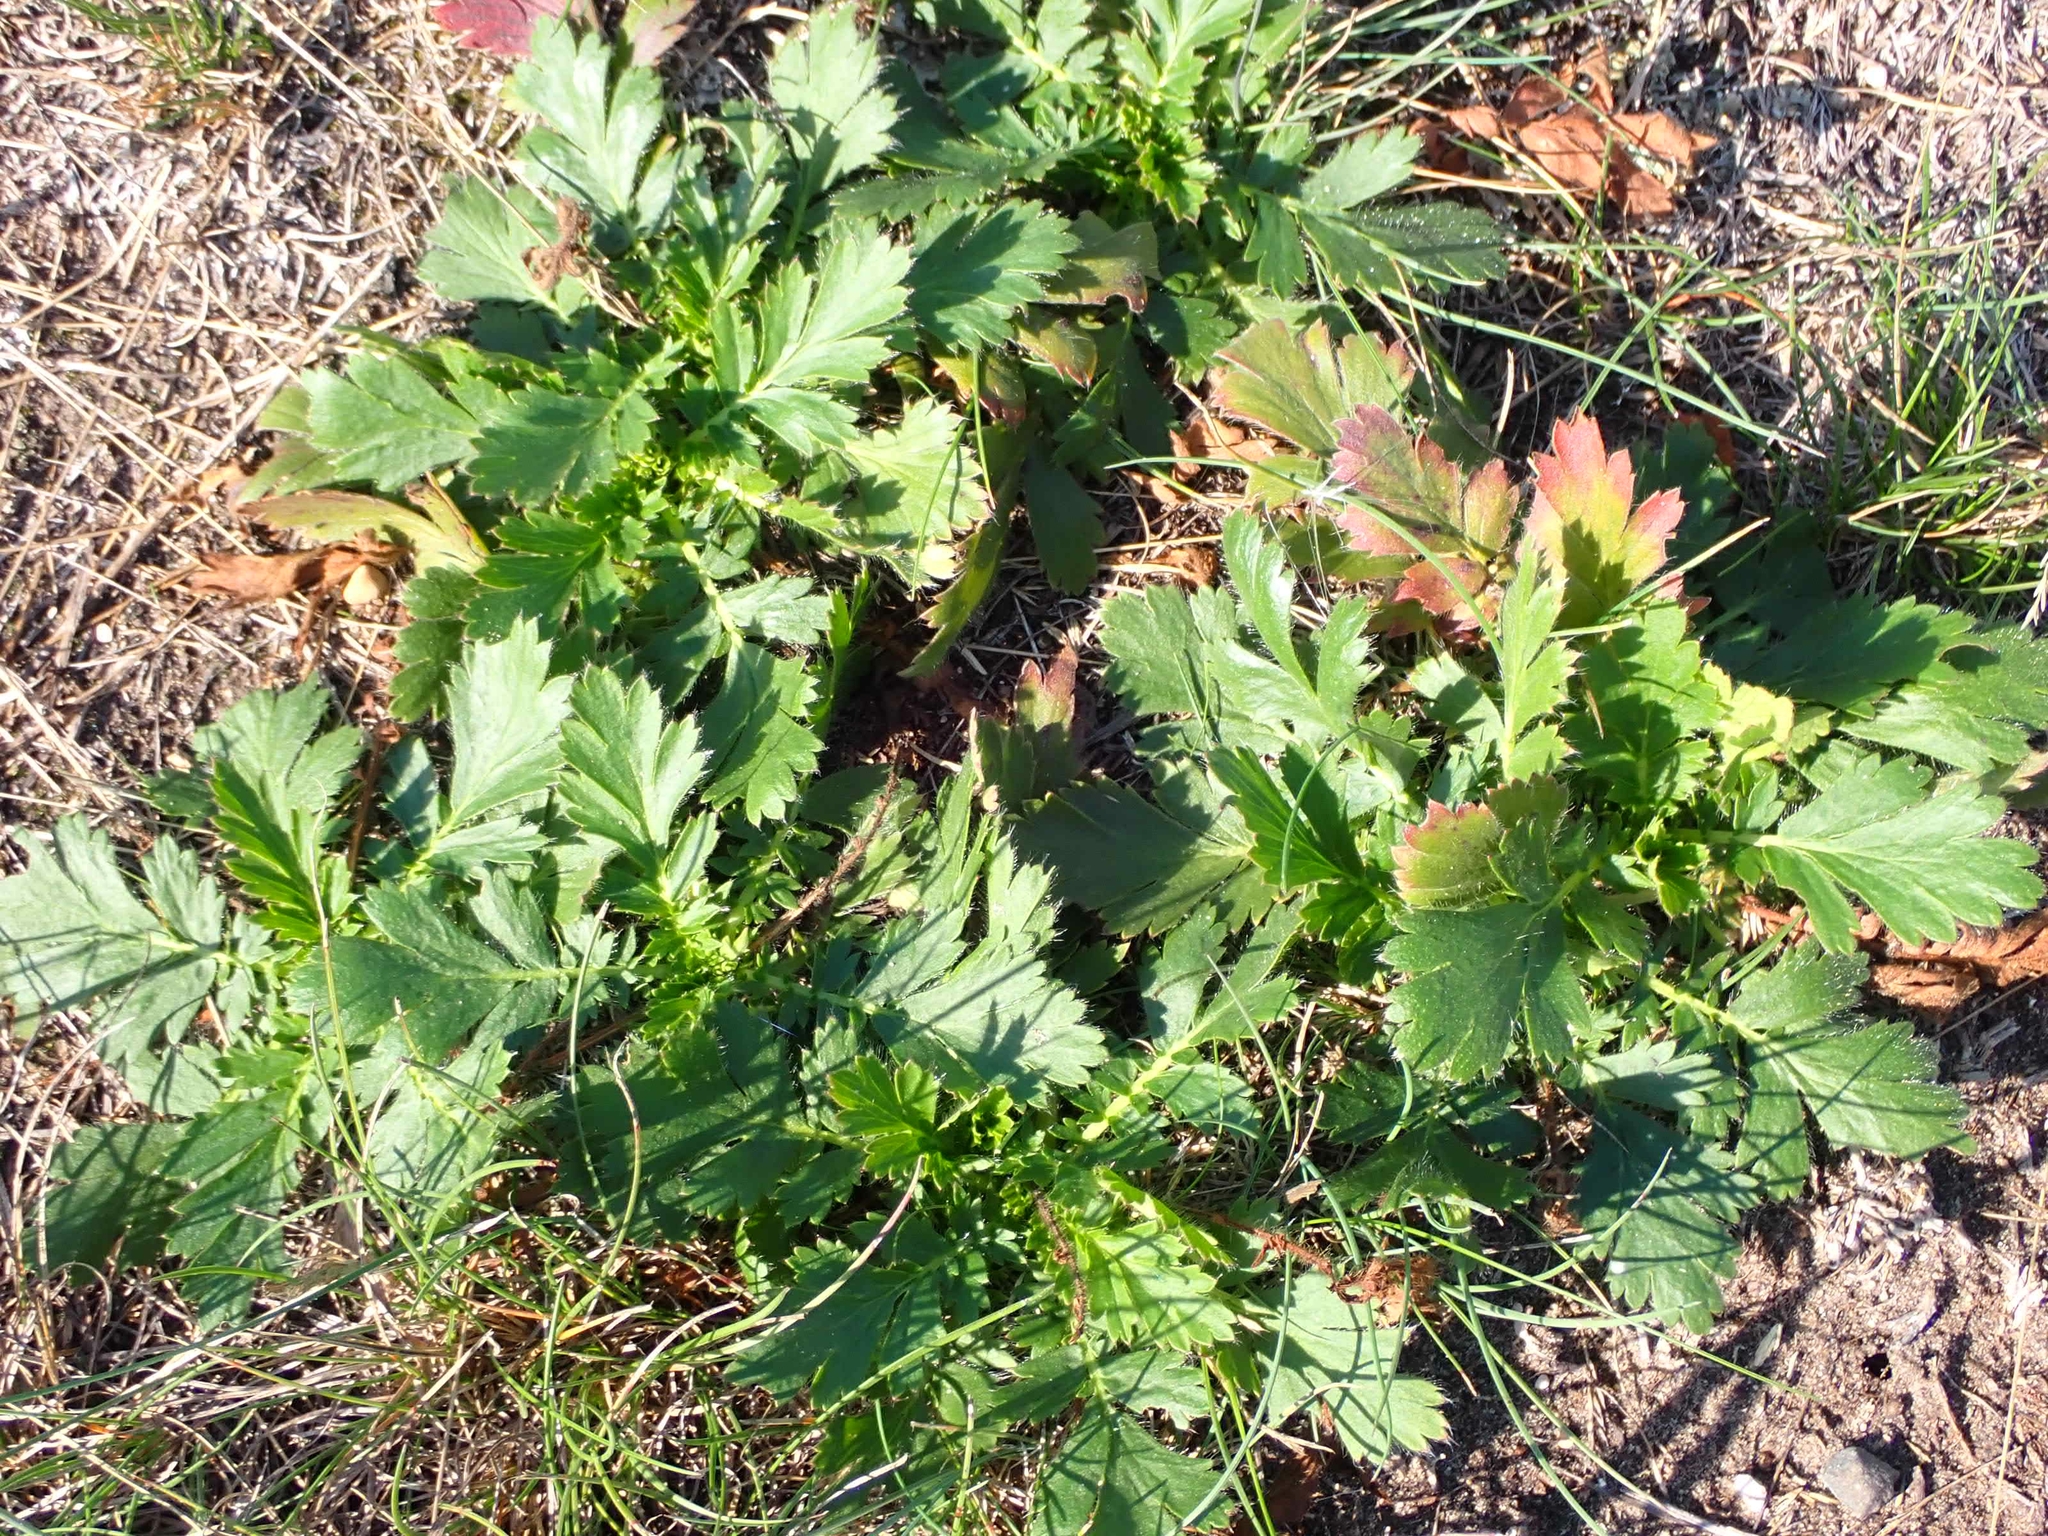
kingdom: Plantae
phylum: Tracheophyta
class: Magnoliopsida
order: Rosales
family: Rosaceae
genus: Geum
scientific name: Geum triflorum
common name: Old man's whiskers
